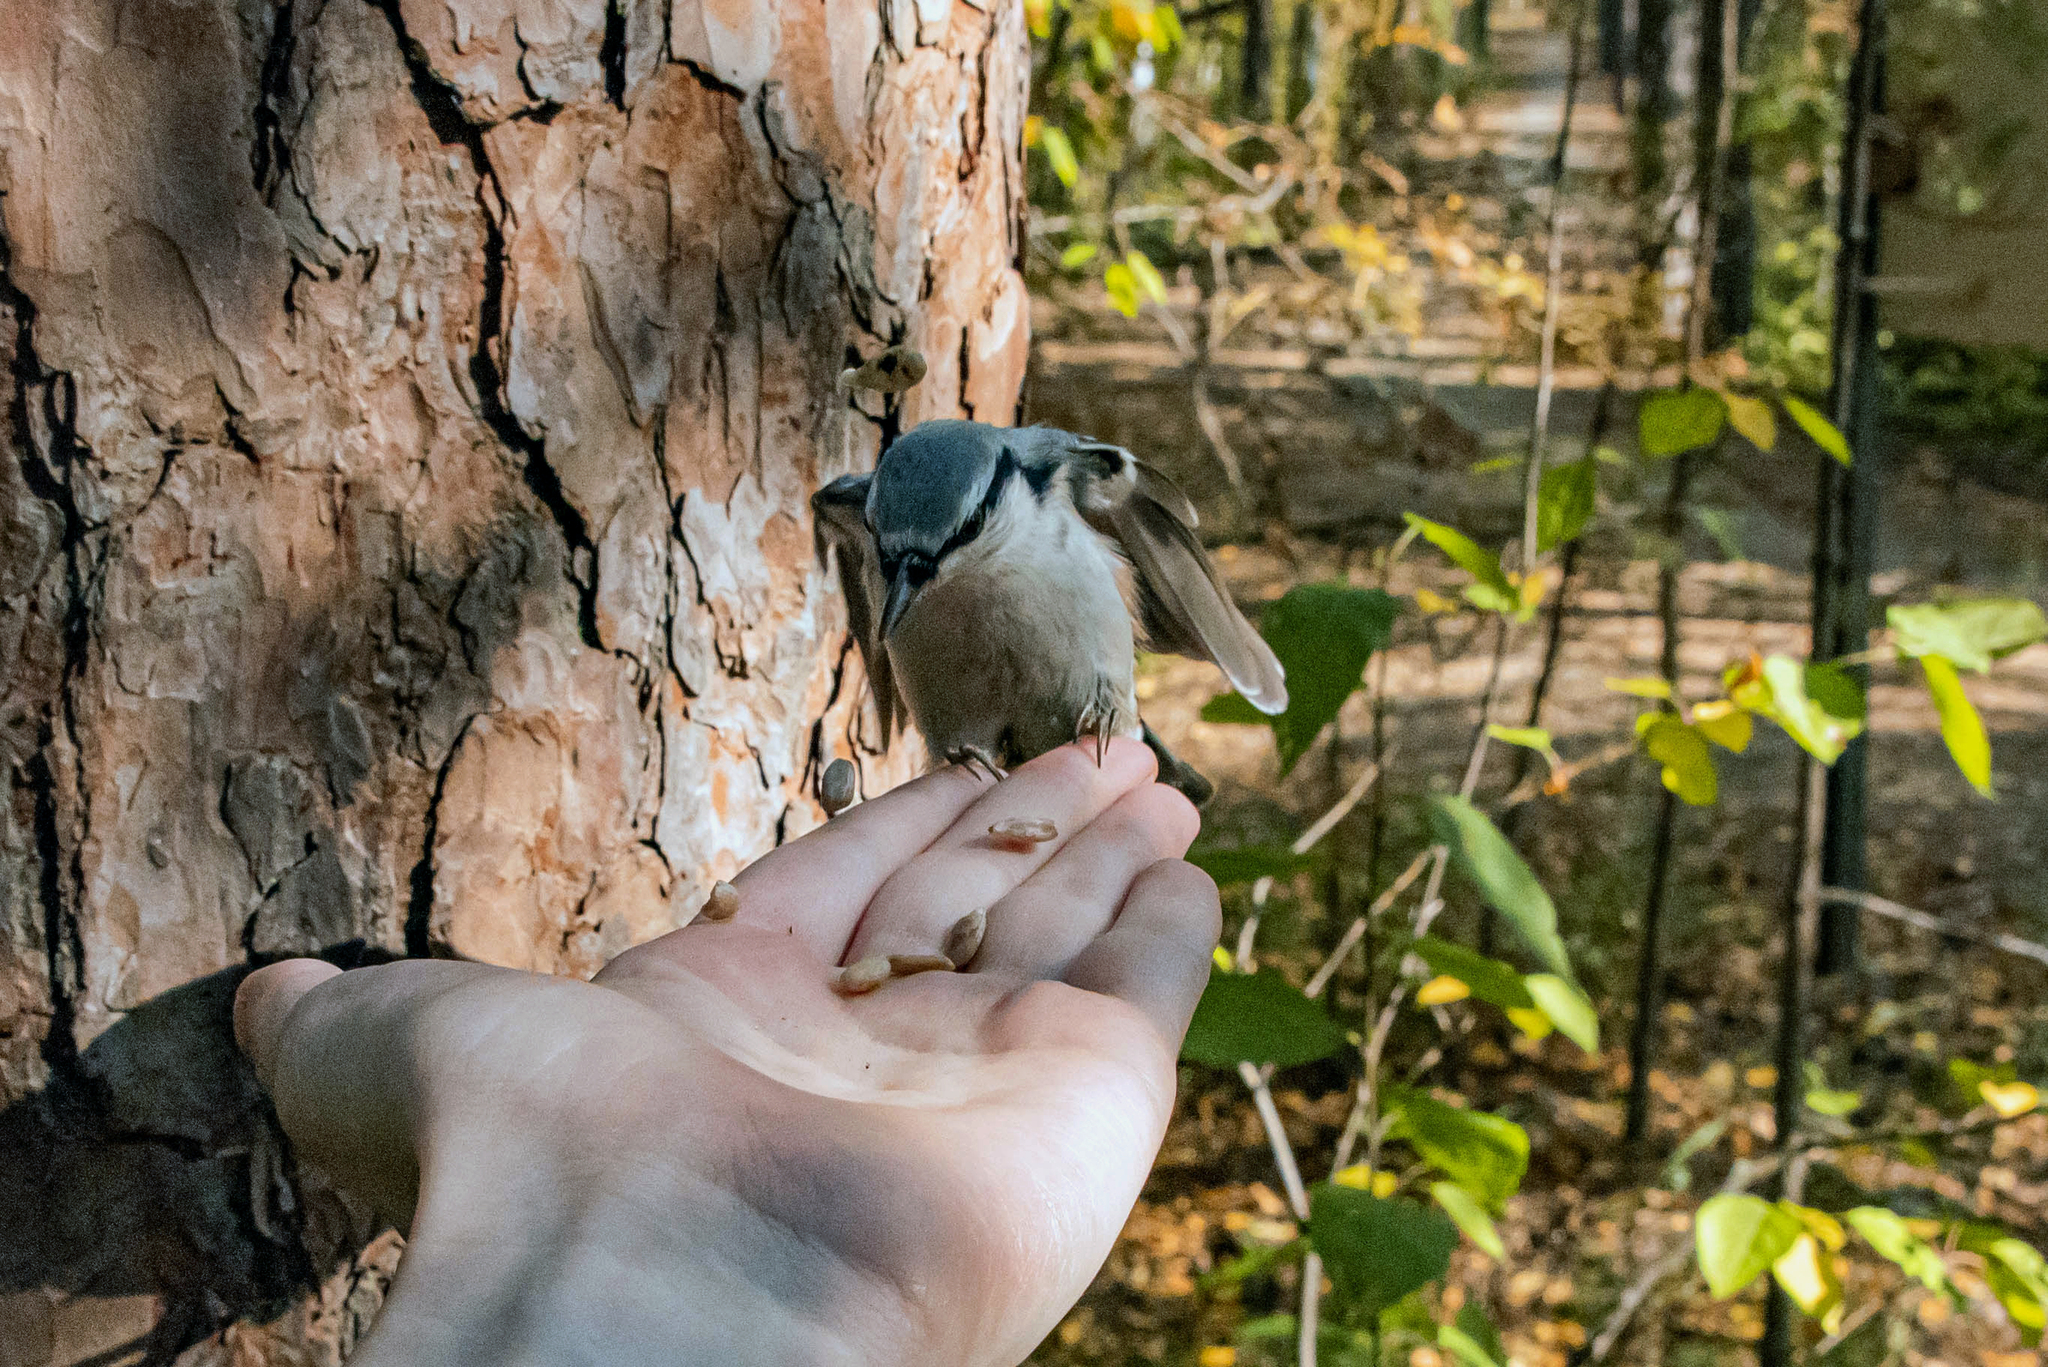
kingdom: Animalia
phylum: Chordata
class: Aves
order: Passeriformes
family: Sittidae
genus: Sitta
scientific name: Sitta europaea
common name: Eurasian nuthatch
